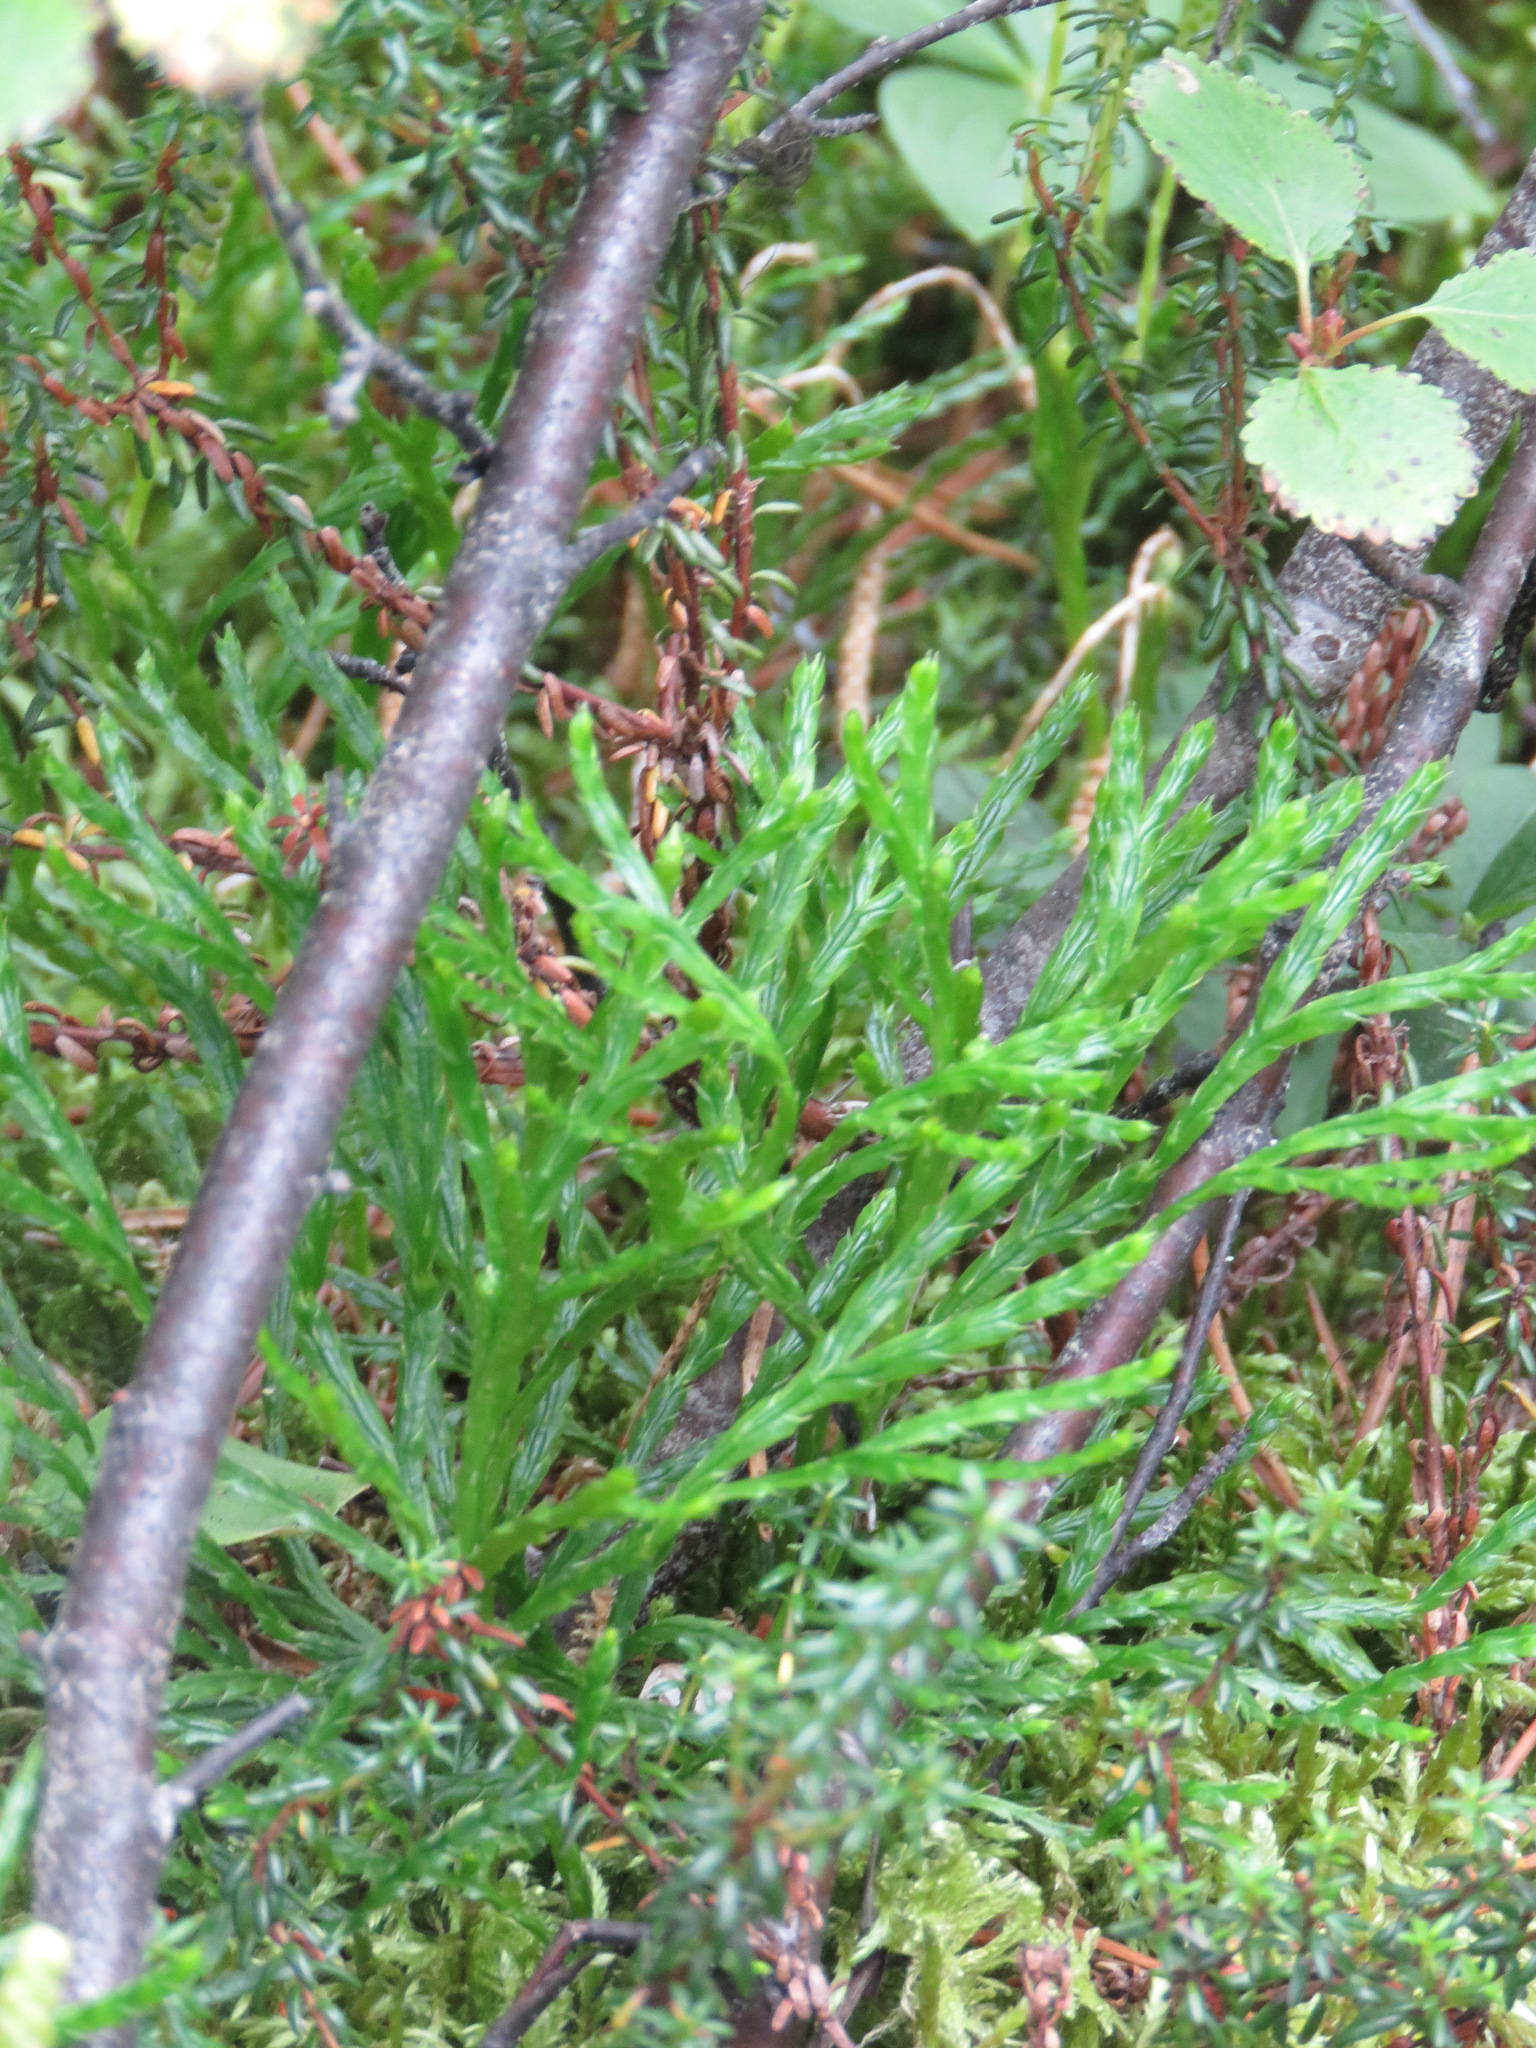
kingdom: Plantae
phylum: Tracheophyta
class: Lycopodiopsida
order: Lycopodiales
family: Lycopodiaceae
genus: Diphasiastrum
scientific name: Diphasiastrum complanatum
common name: Northern running-pine
